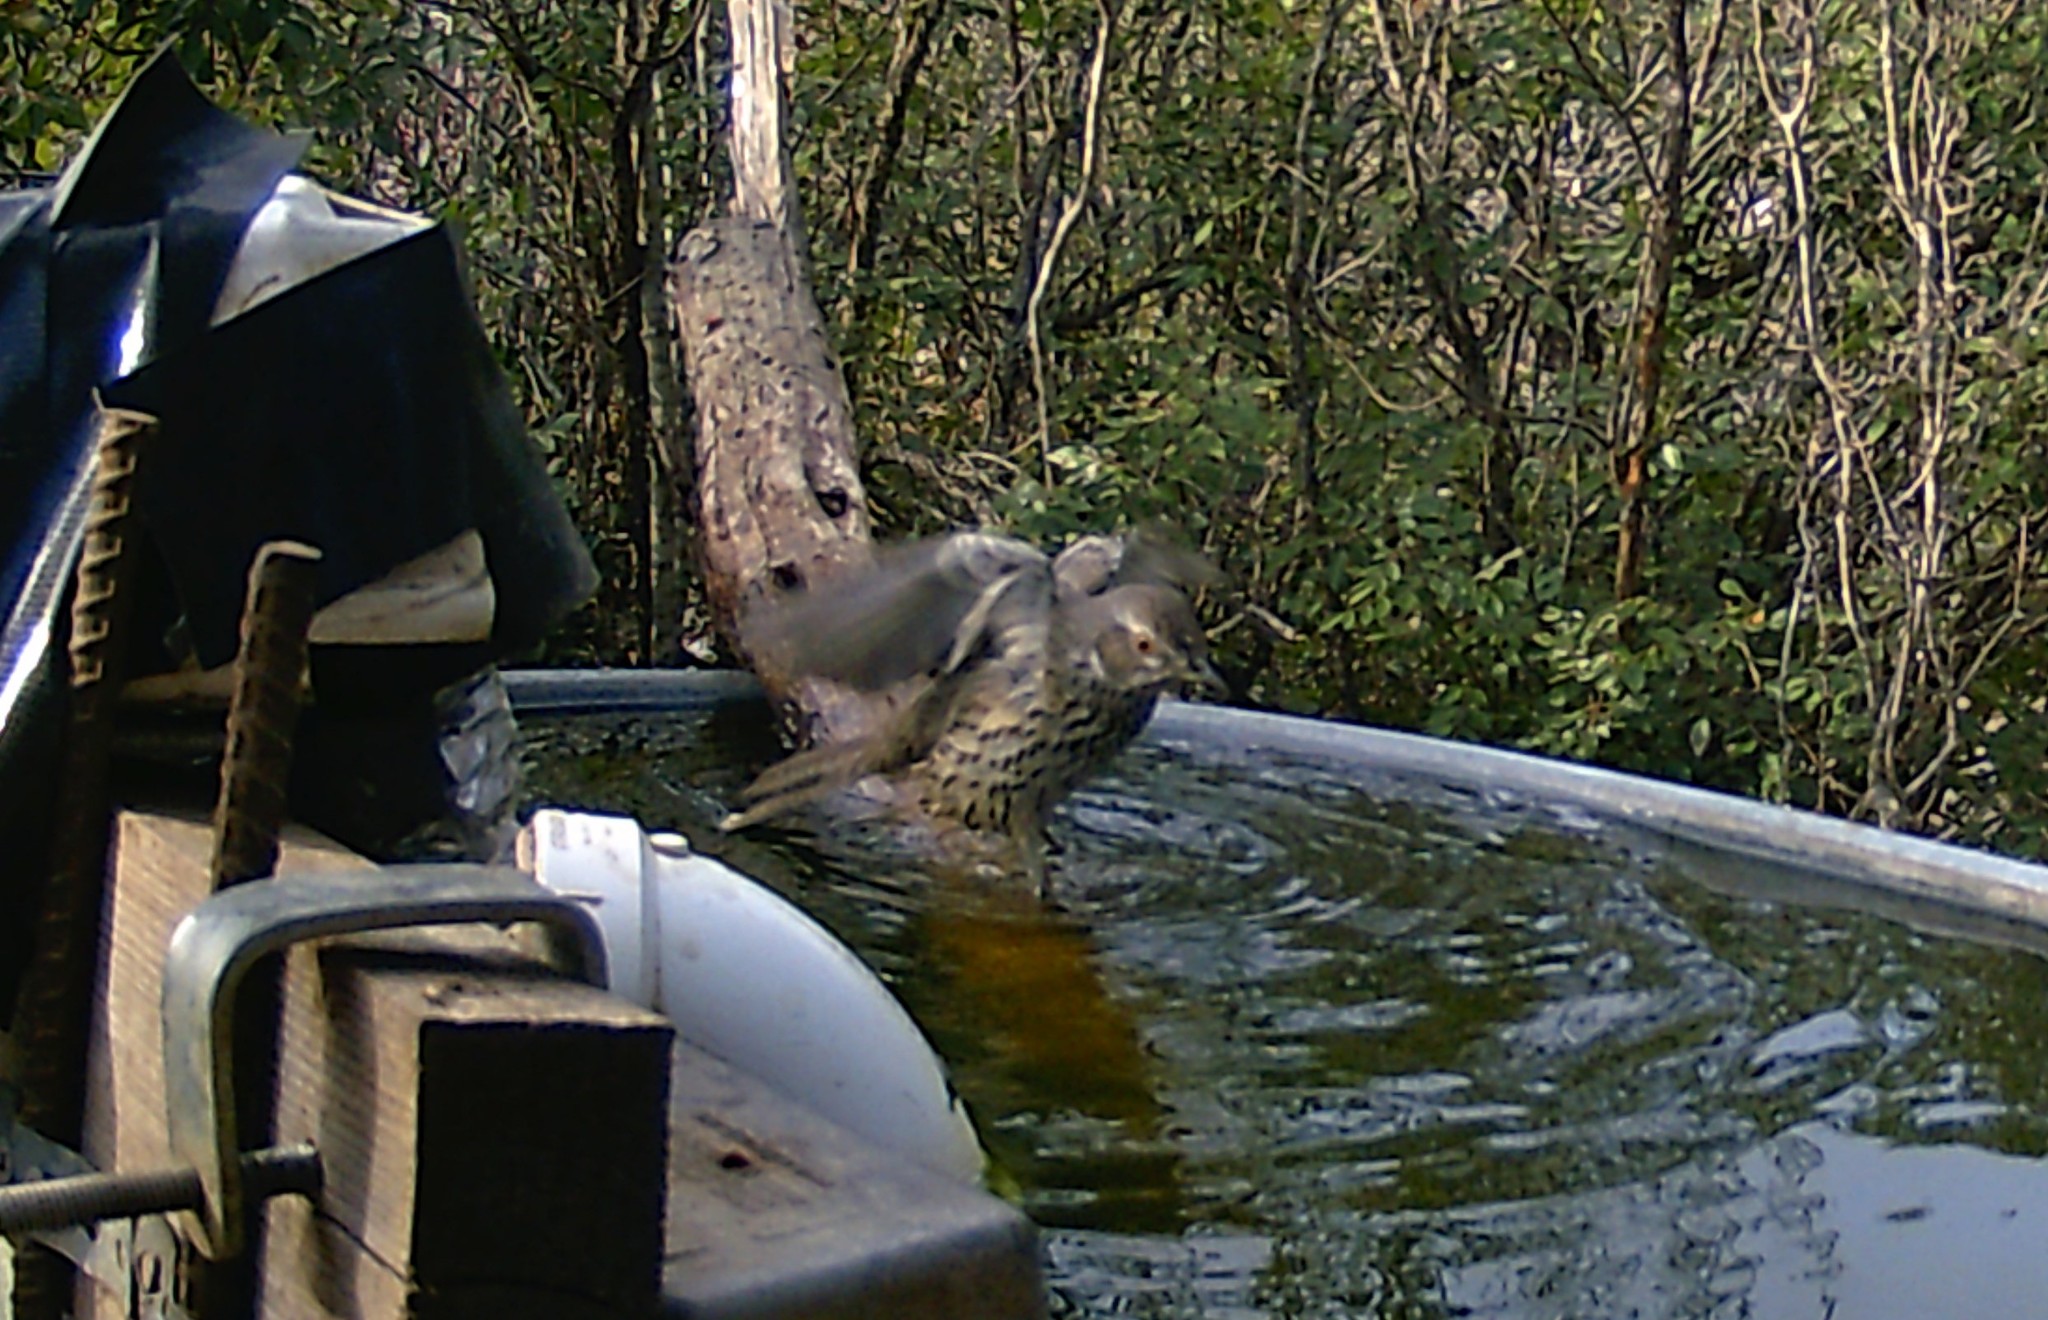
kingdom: Animalia
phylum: Chordata
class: Aves
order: Passeriformes
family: Mimidae
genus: Oreoscoptes
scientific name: Oreoscoptes montanus
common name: Sage thrasher
